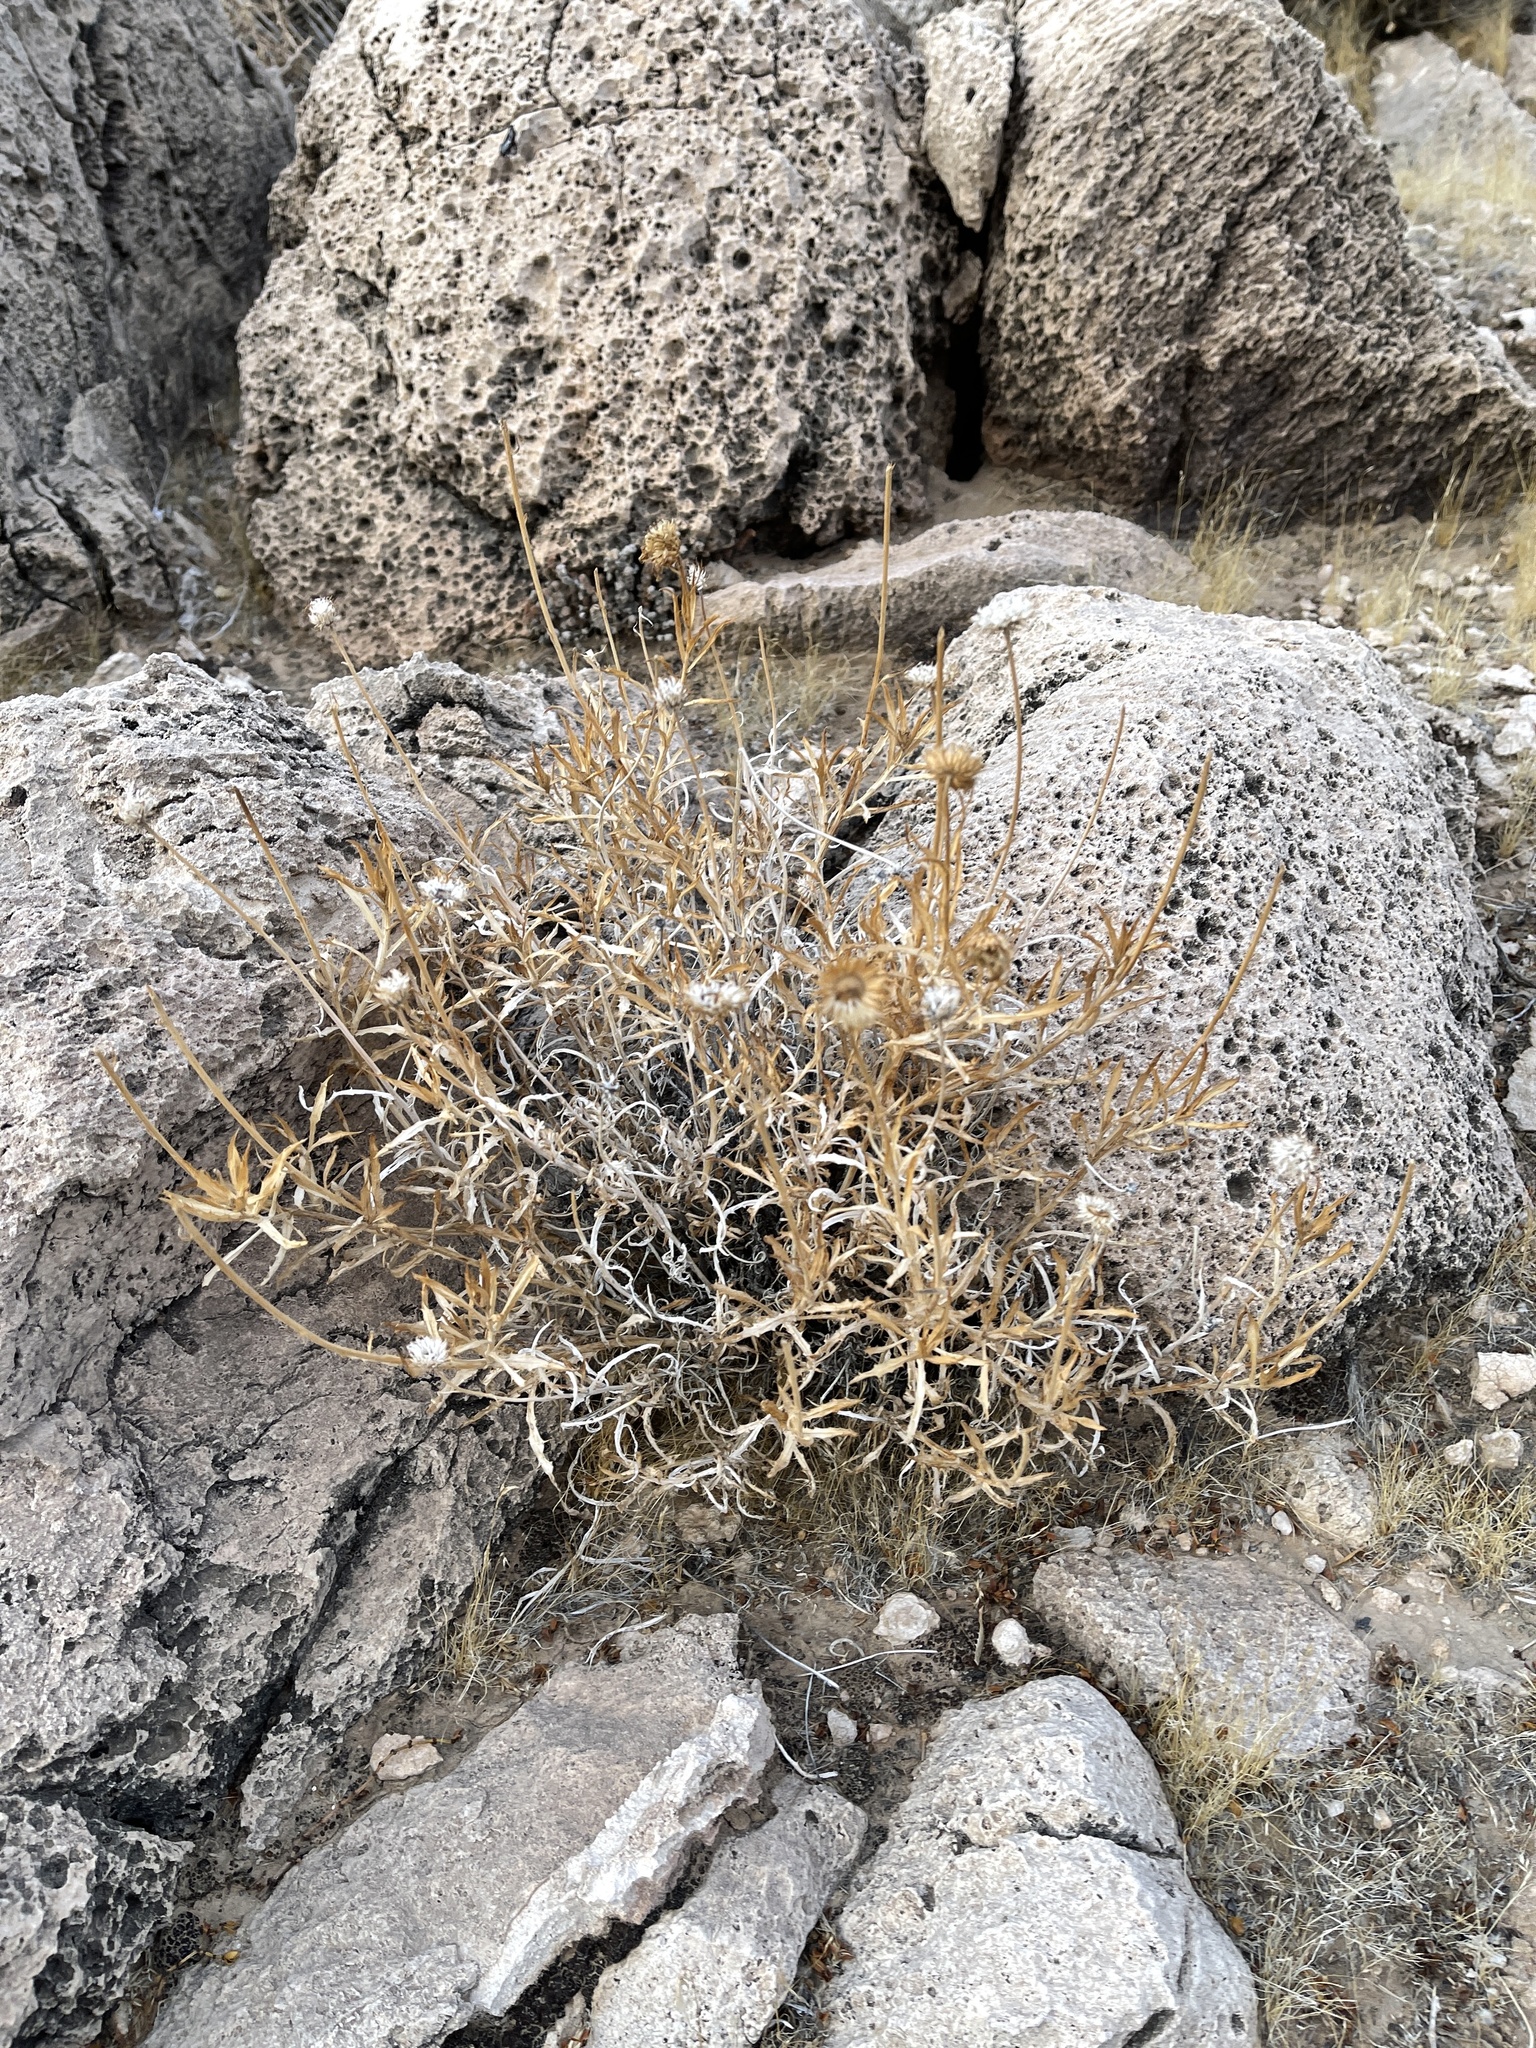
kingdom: Plantae
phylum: Tracheophyta
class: Magnoliopsida
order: Asterales
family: Asteraceae
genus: Xylorhiza
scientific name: Xylorhiza tortifolia
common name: Hurt-leaf woody-aster
